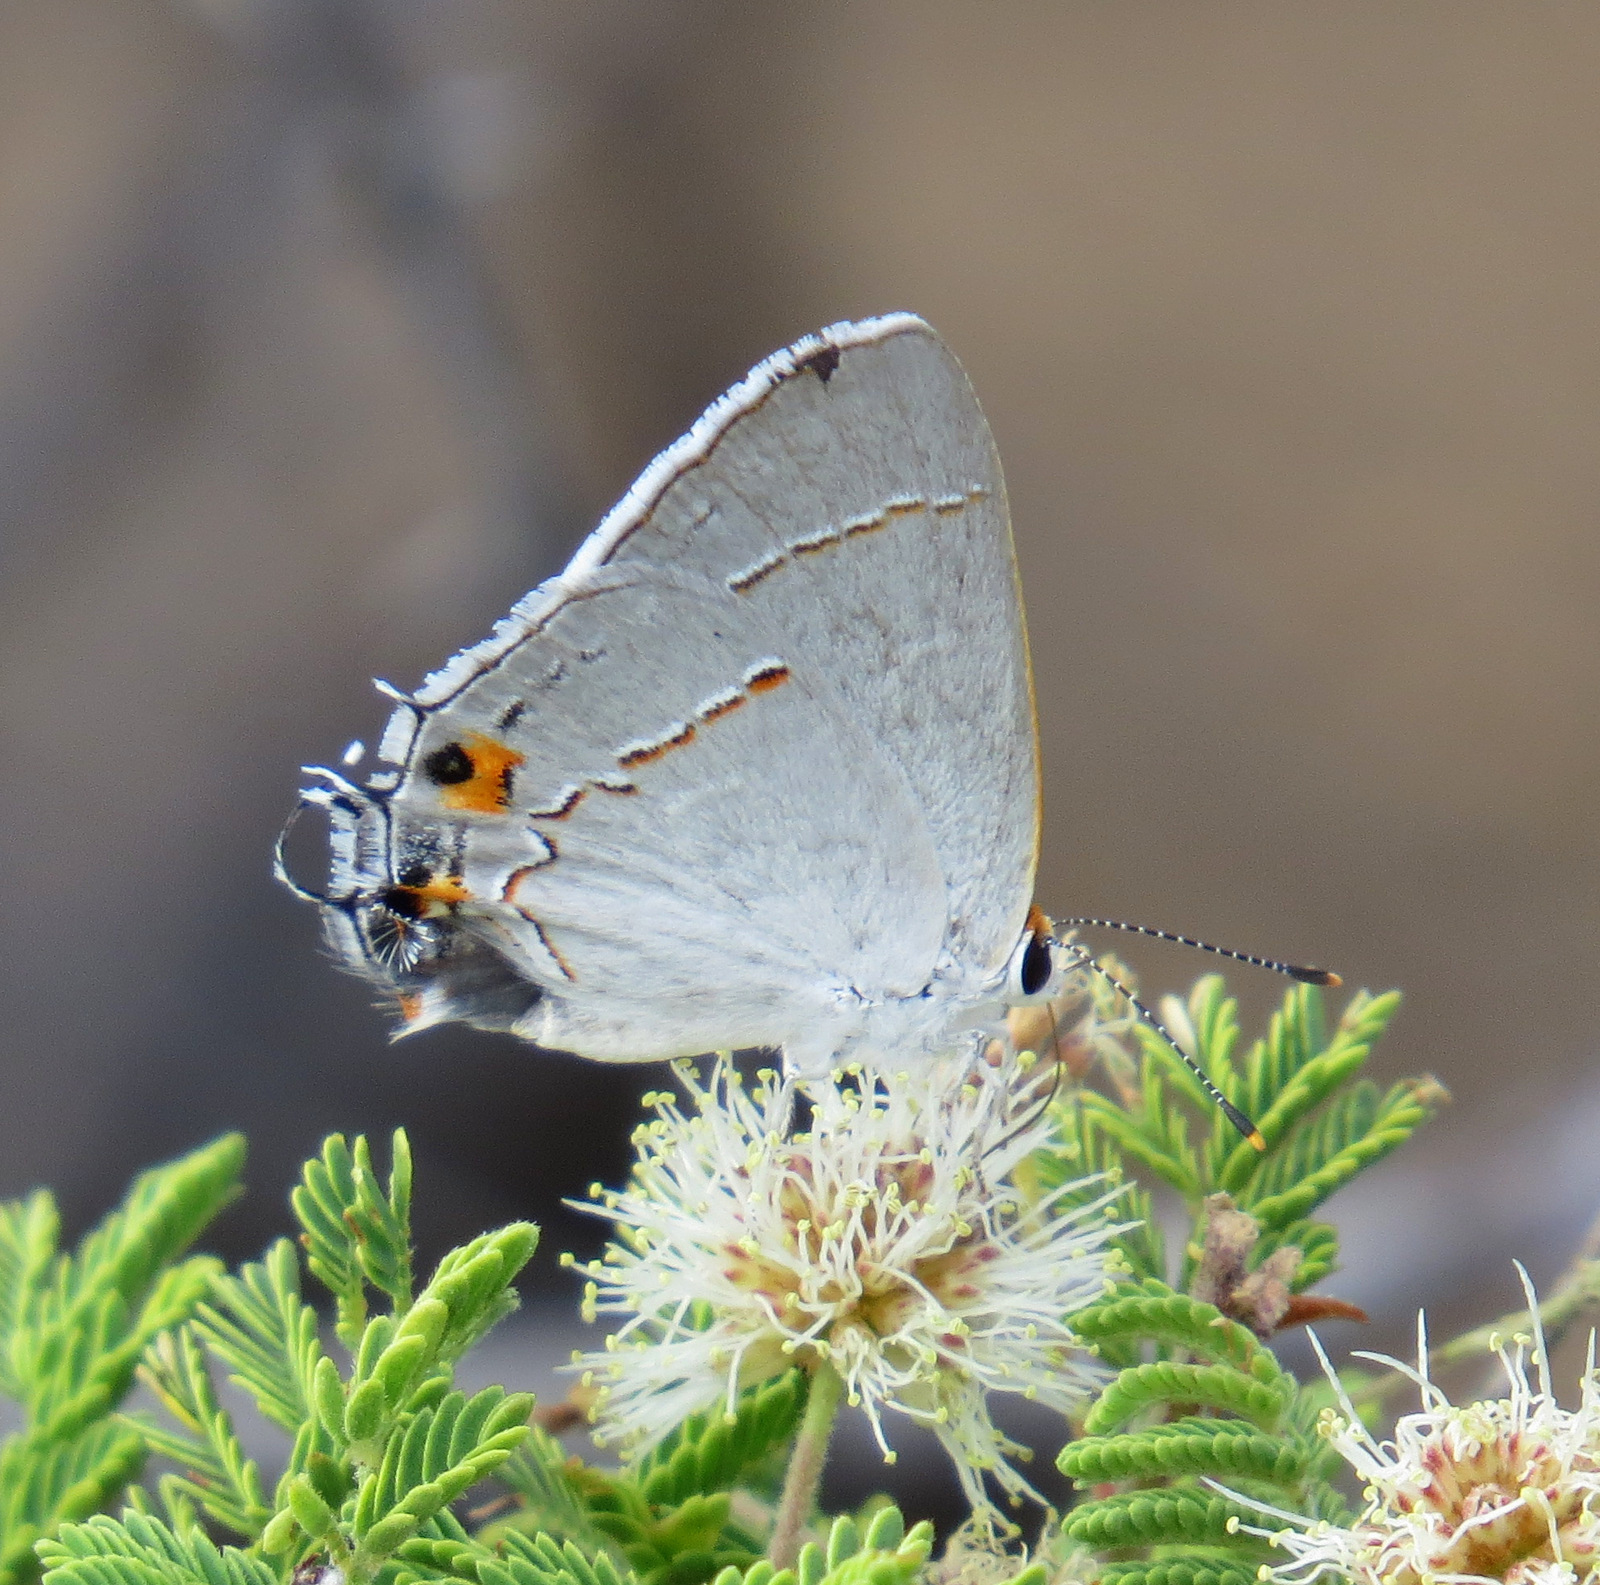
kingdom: Animalia
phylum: Arthropoda
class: Insecta
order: Lepidoptera
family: Lycaenidae
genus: Strymon
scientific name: Strymon melinus
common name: Gray hairstreak
